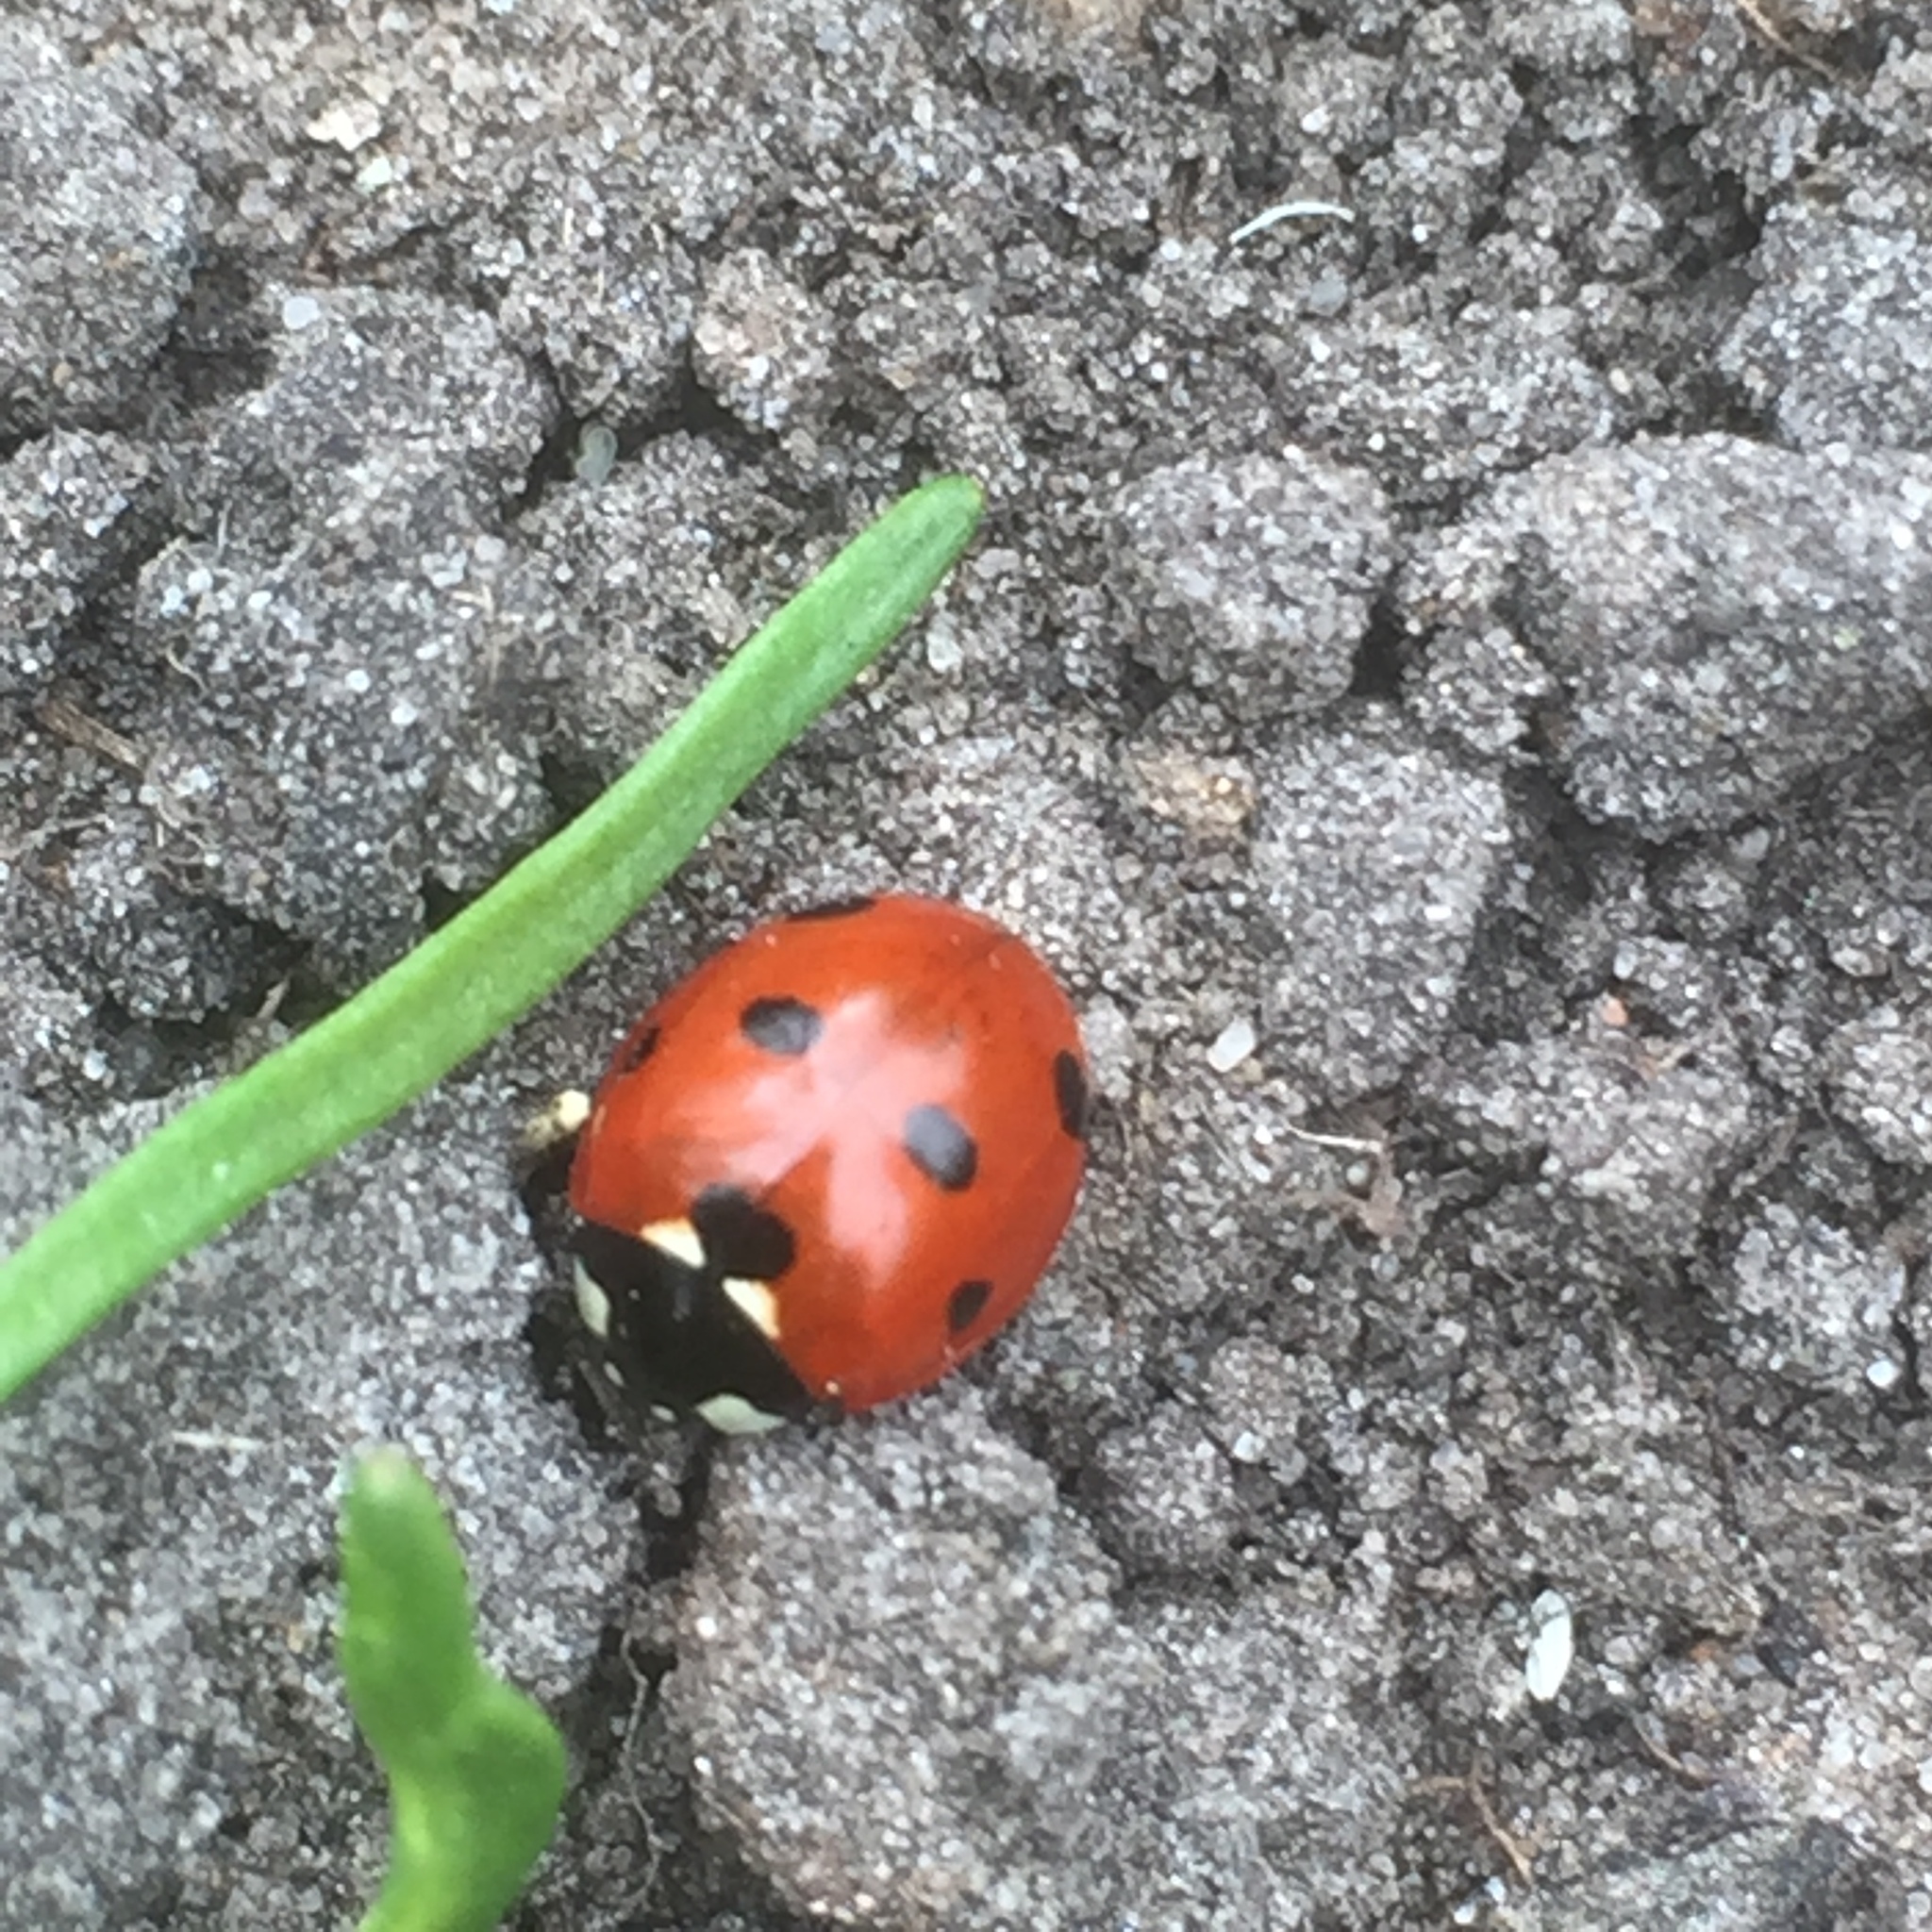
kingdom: Animalia
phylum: Arthropoda
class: Insecta
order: Coleoptera
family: Coccinellidae
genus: Coccinella
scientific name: Coccinella septempunctata
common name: Sevenspotted lady beetle
